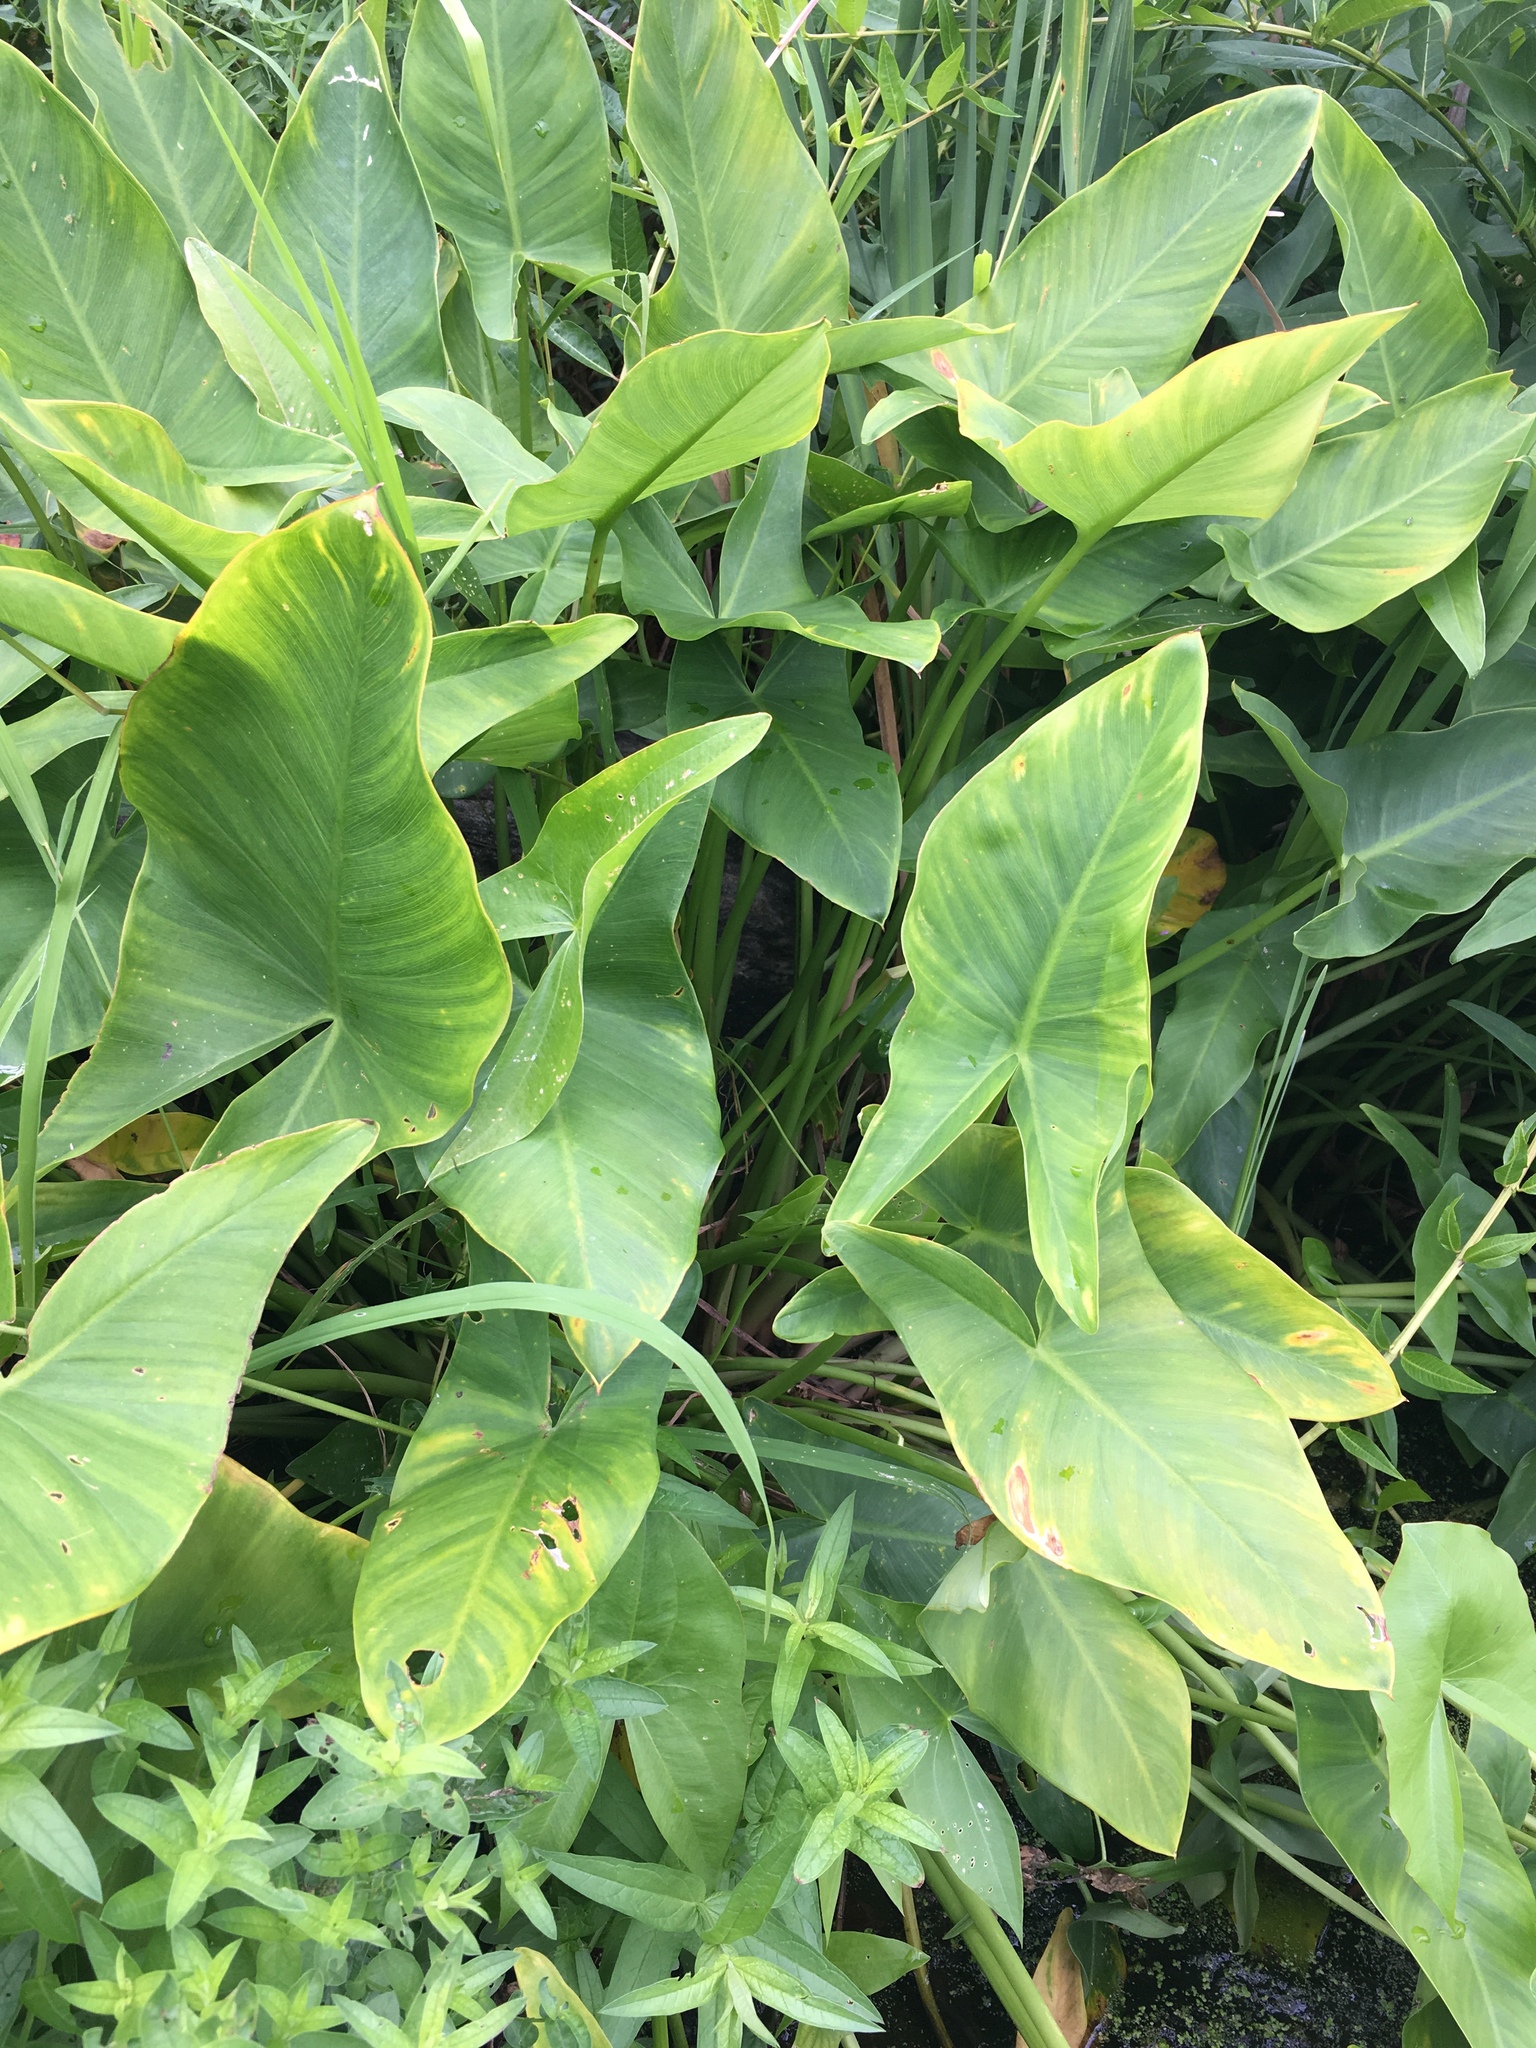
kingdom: Plantae
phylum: Tracheophyta
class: Liliopsida
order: Alismatales
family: Araceae
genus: Peltandra
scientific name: Peltandra virginica
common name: Arrow arum
